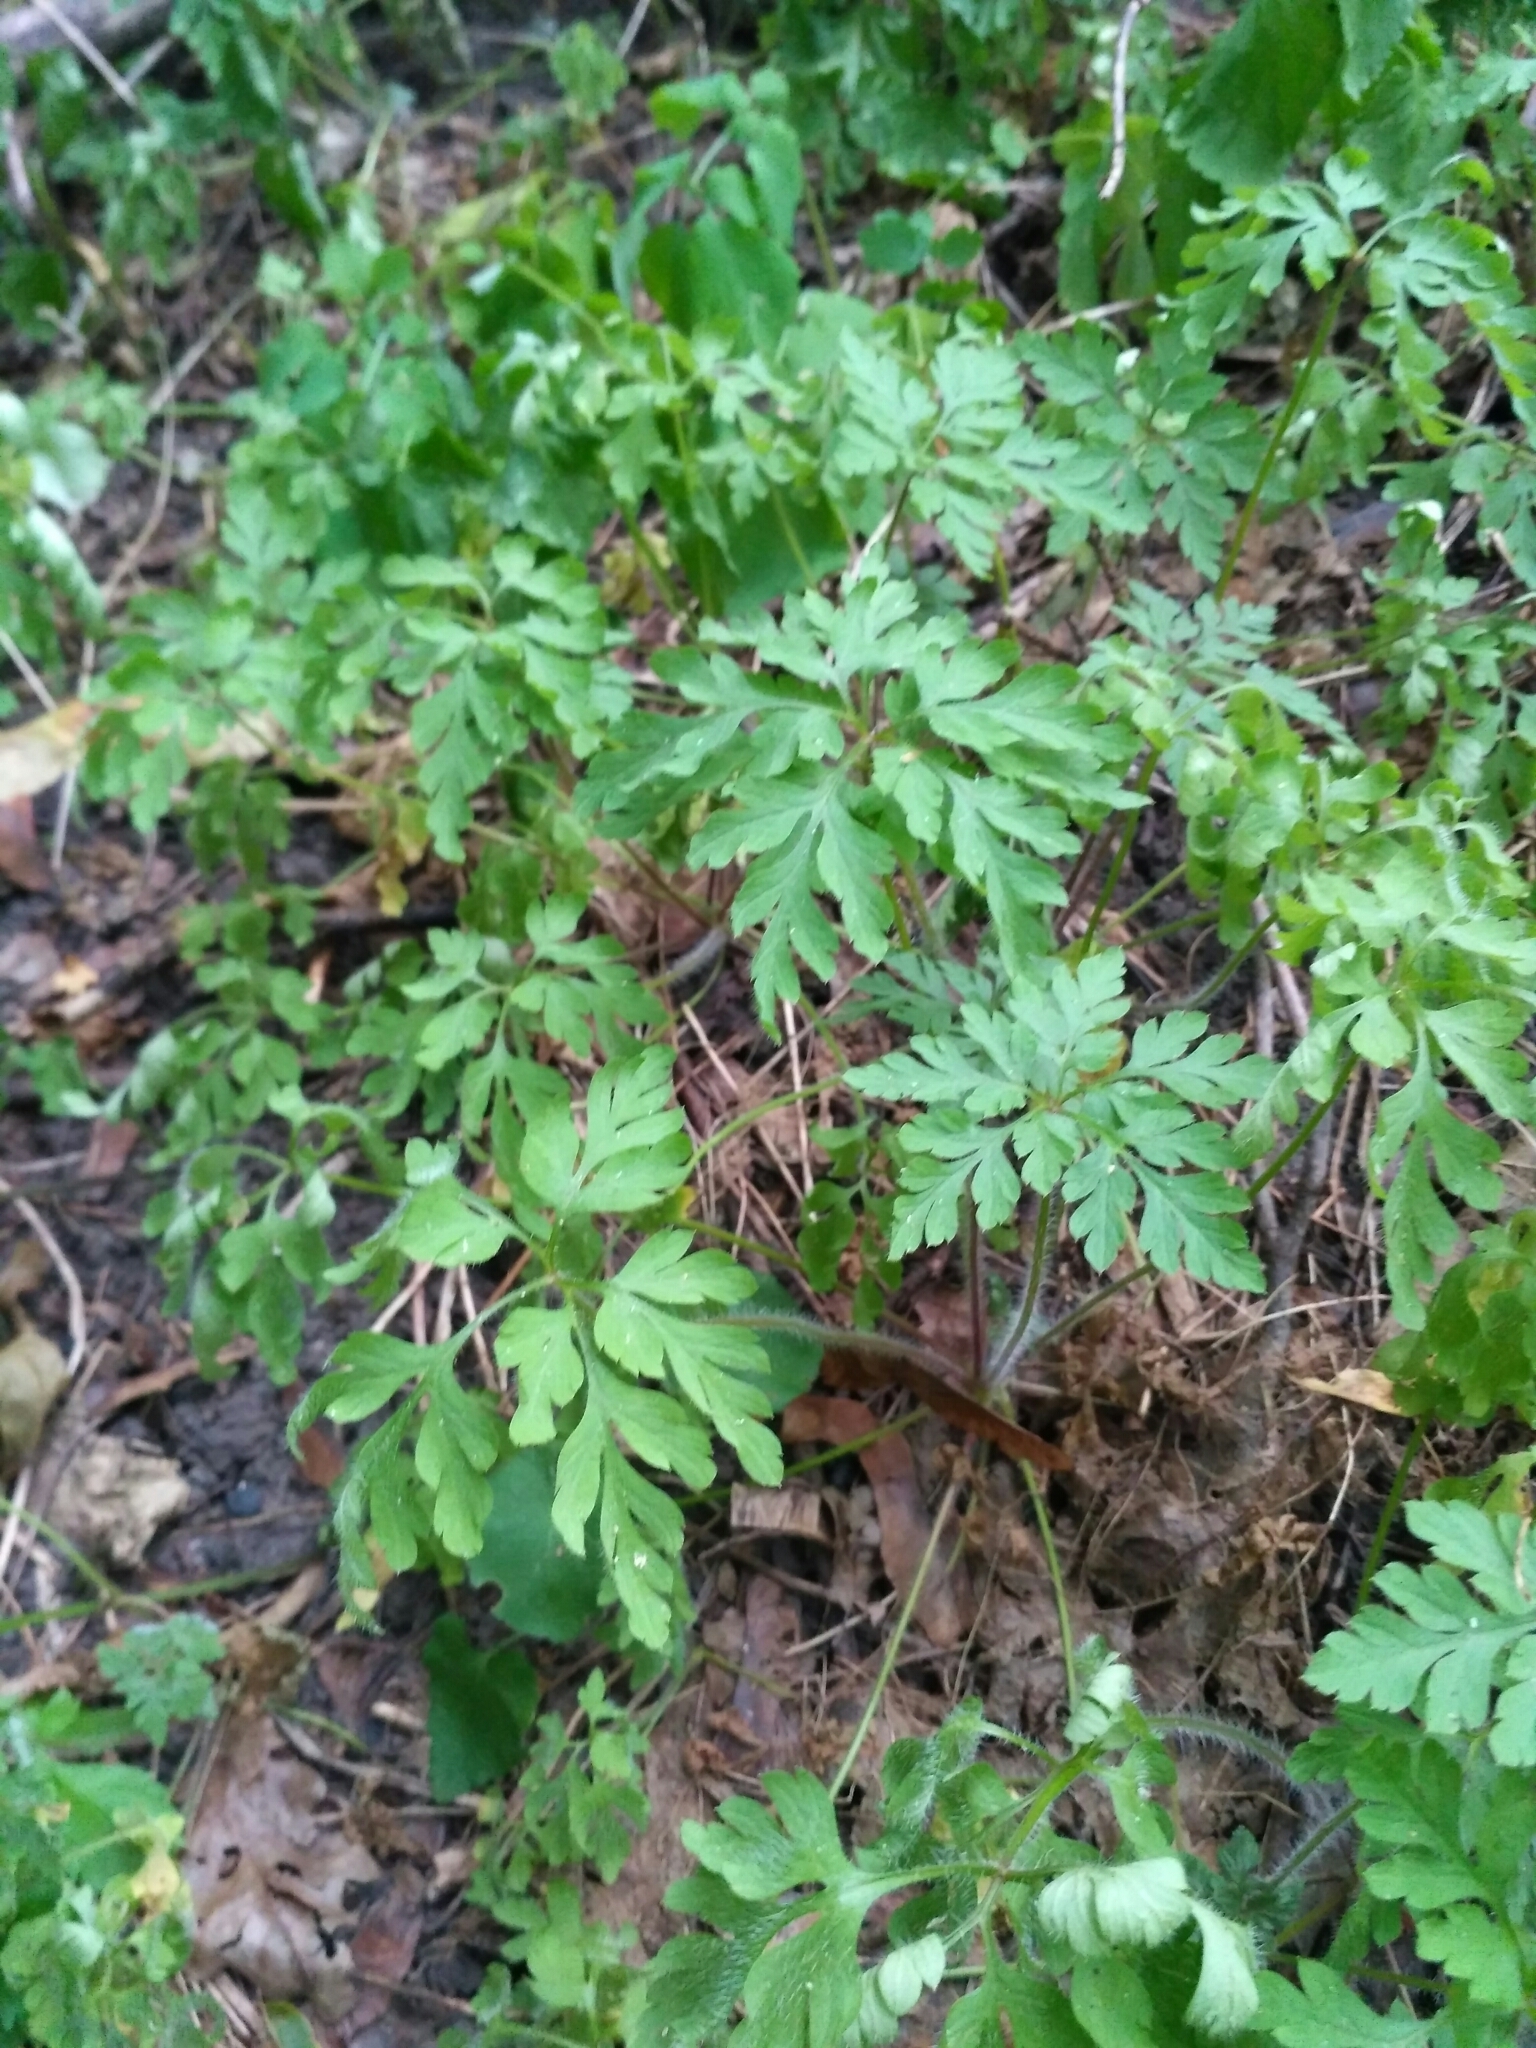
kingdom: Plantae
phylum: Tracheophyta
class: Magnoliopsida
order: Geraniales
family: Geraniaceae
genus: Geranium
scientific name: Geranium robertianum
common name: Herb-robert
